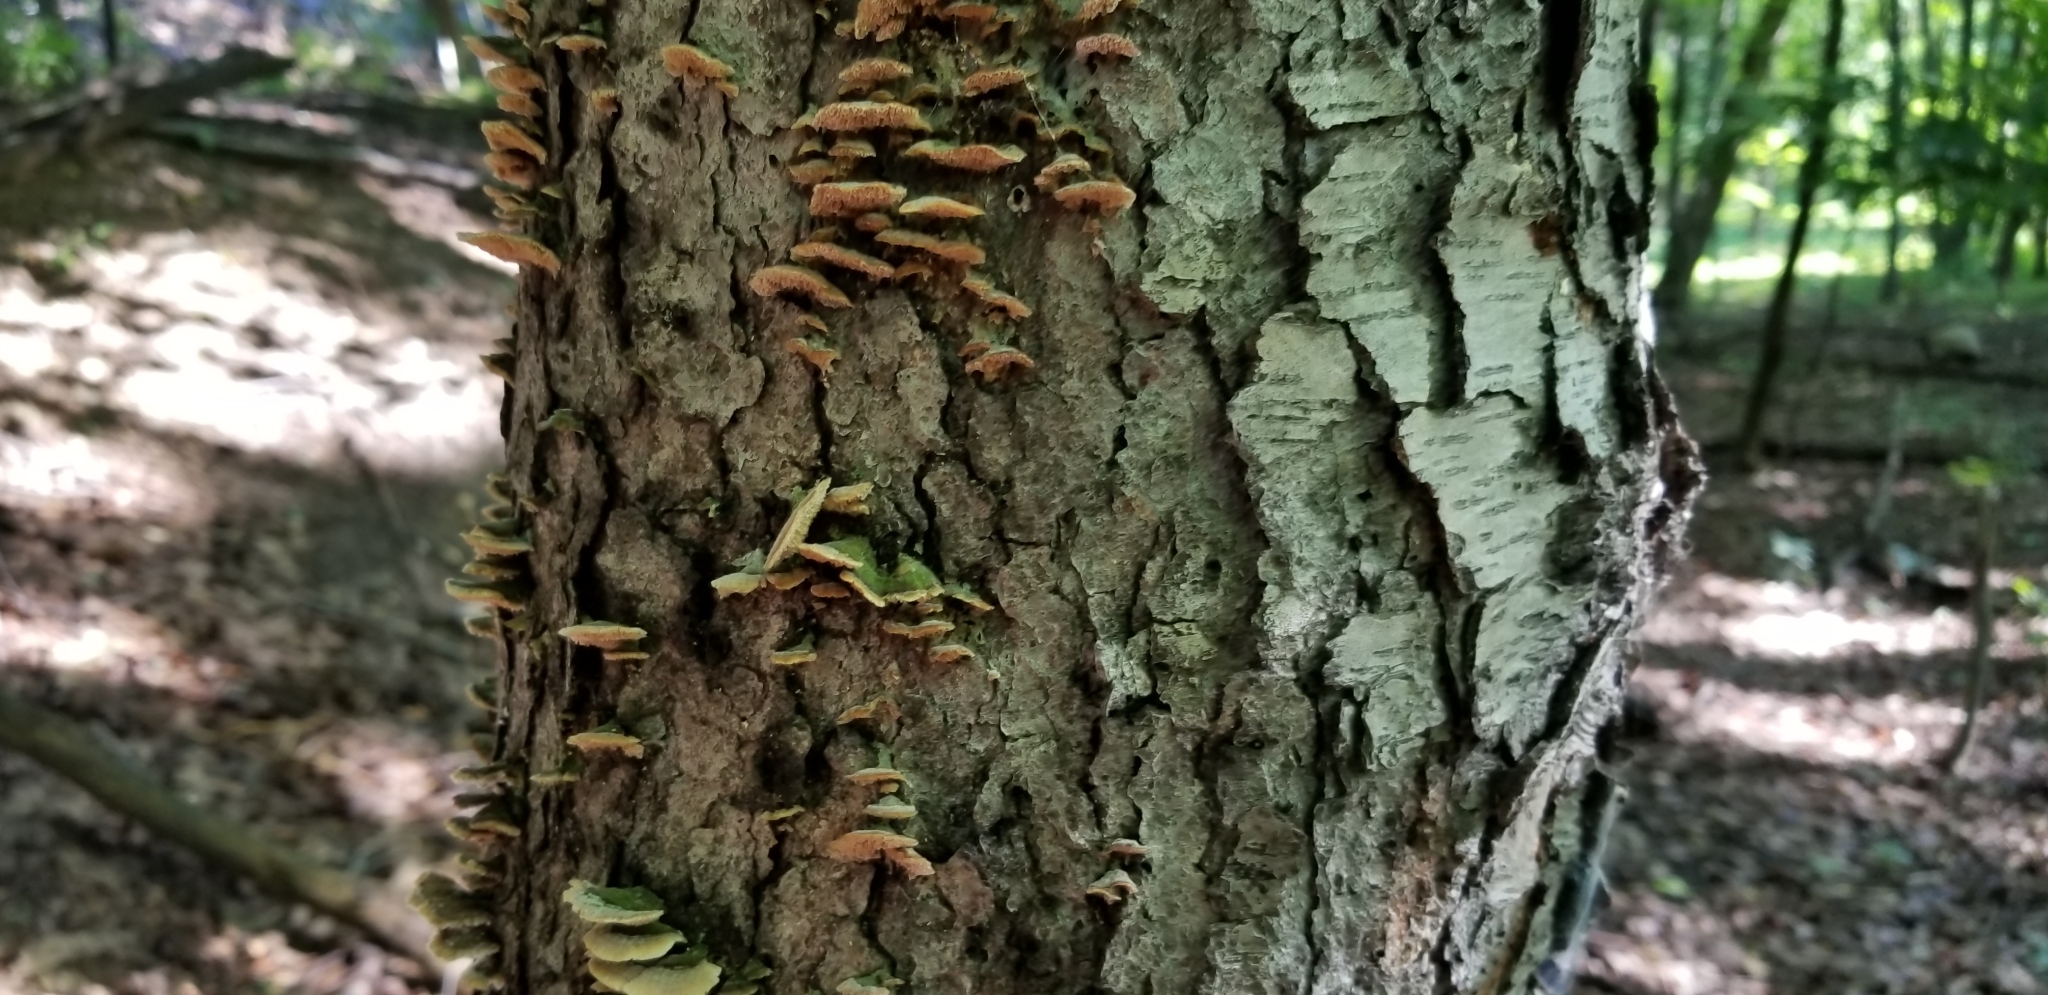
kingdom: Fungi
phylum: Basidiomycota
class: Agaricomycetes
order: Hymenochaetales
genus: Trichaptum
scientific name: Trichaptum biforme
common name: Violet-toothed polypore
